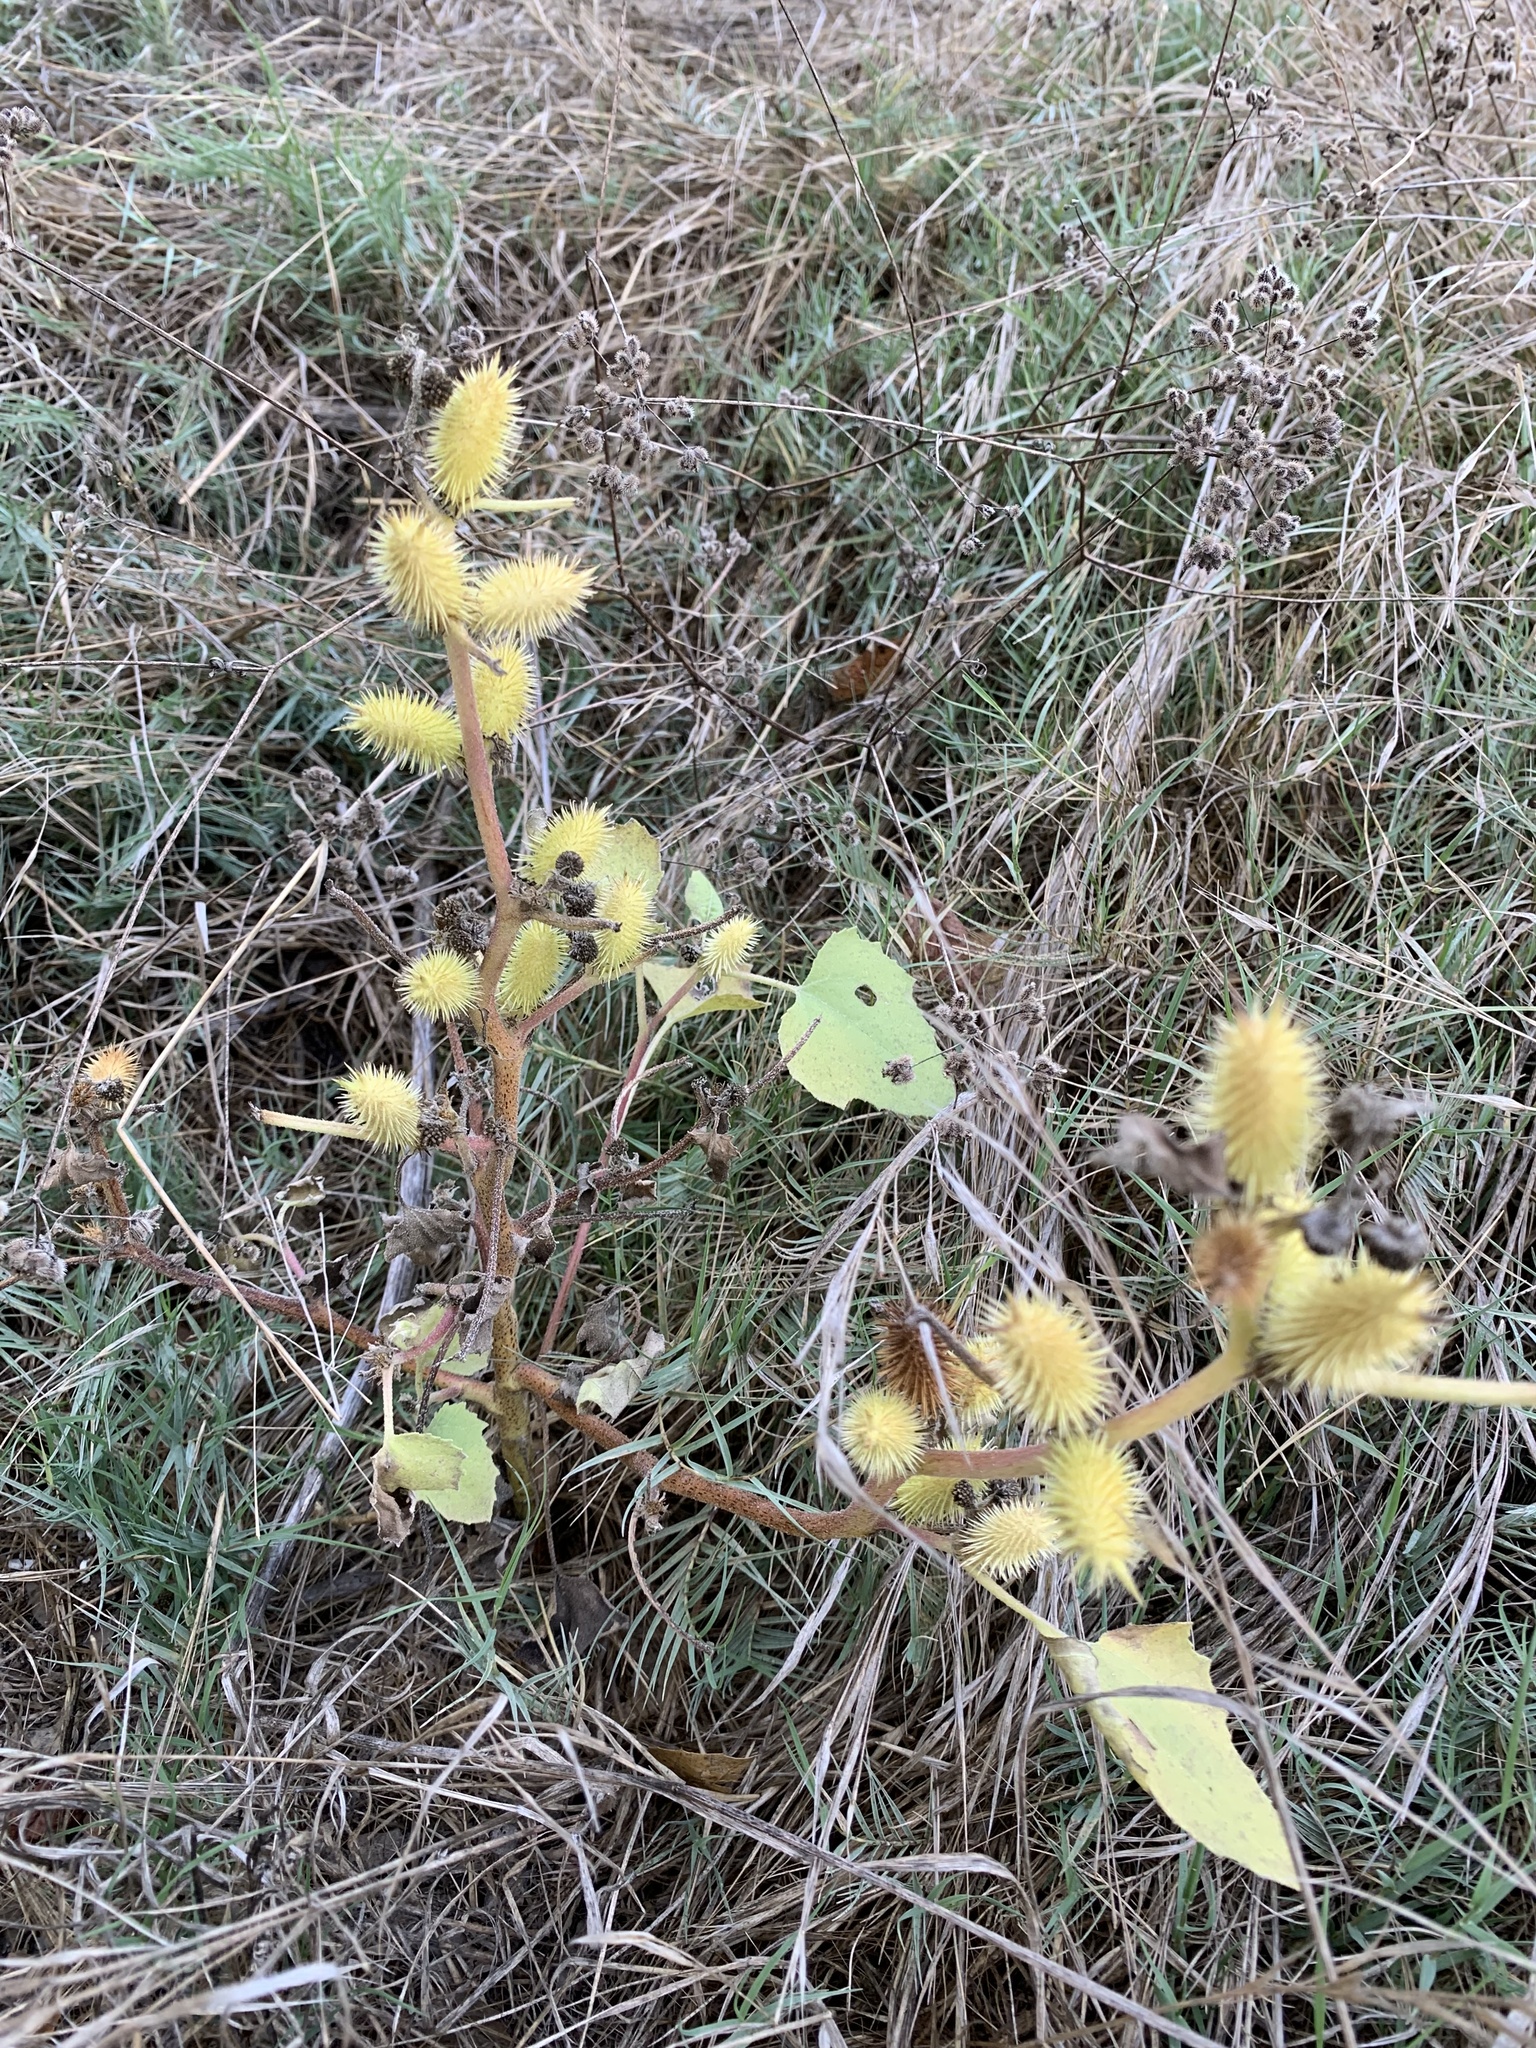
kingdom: Plantae
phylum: Tracheophyta
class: Magnoliopsida
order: Asterales
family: Asteraceae
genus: Xanthium
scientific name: Xanthium strumarium
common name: Rough cocklebur
